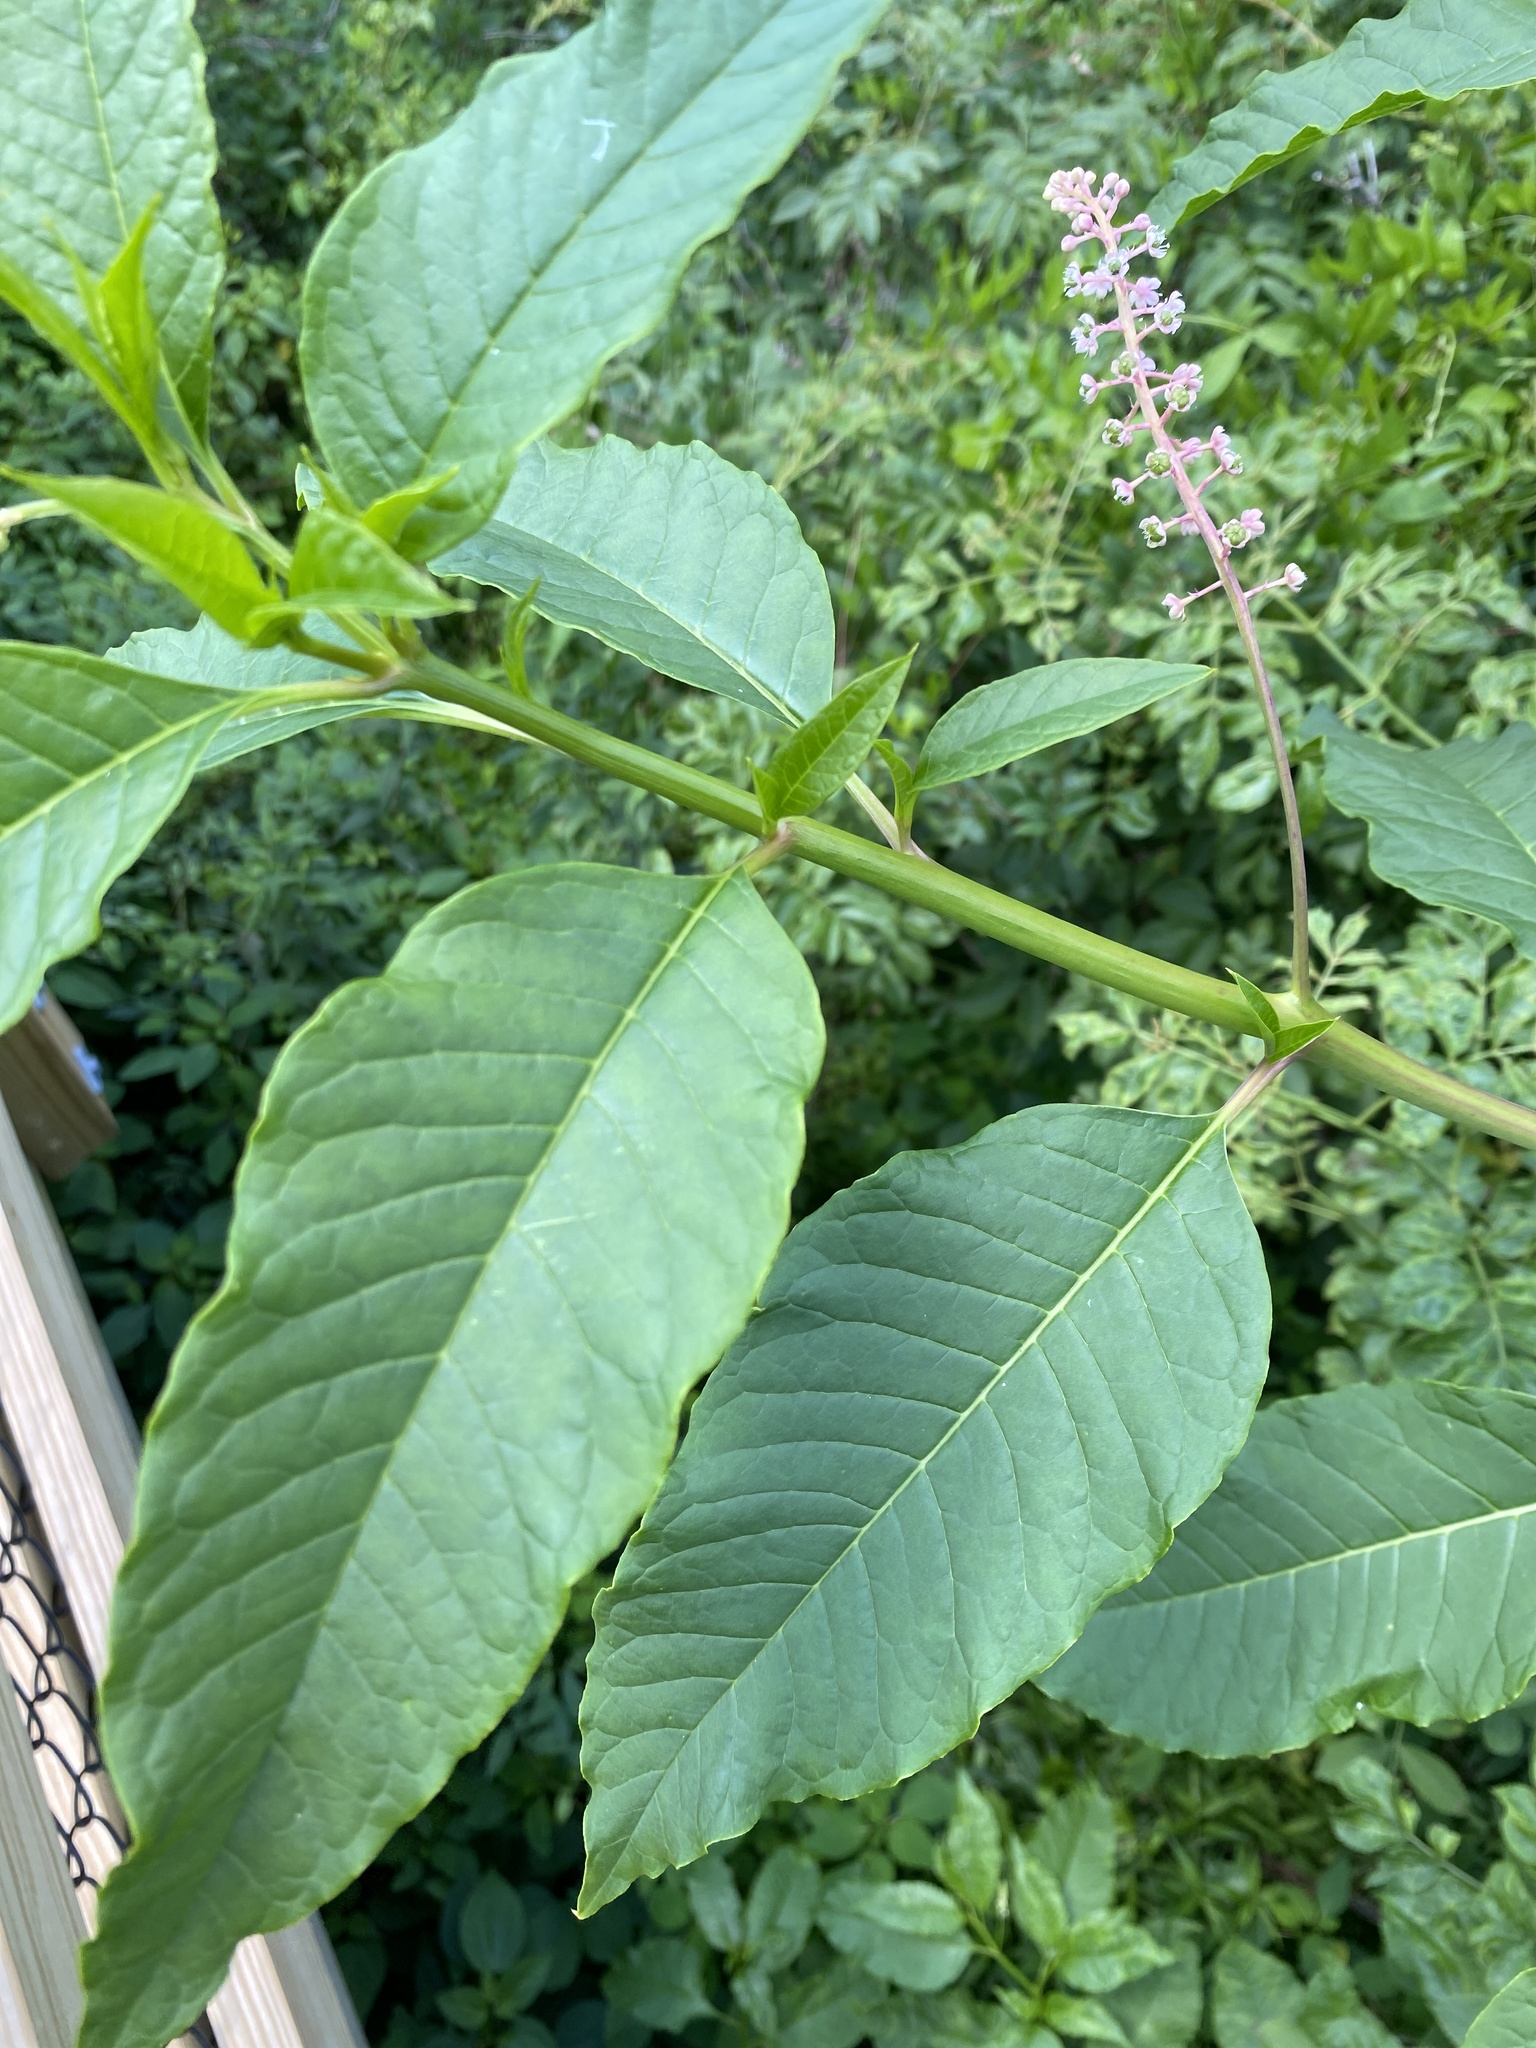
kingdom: Plantae
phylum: Tracheophyta
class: Magnoliopsida
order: Caryophyllales
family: Phytolaccaceae
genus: Phytolacca
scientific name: Phytolacca americana
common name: American pokeweed
